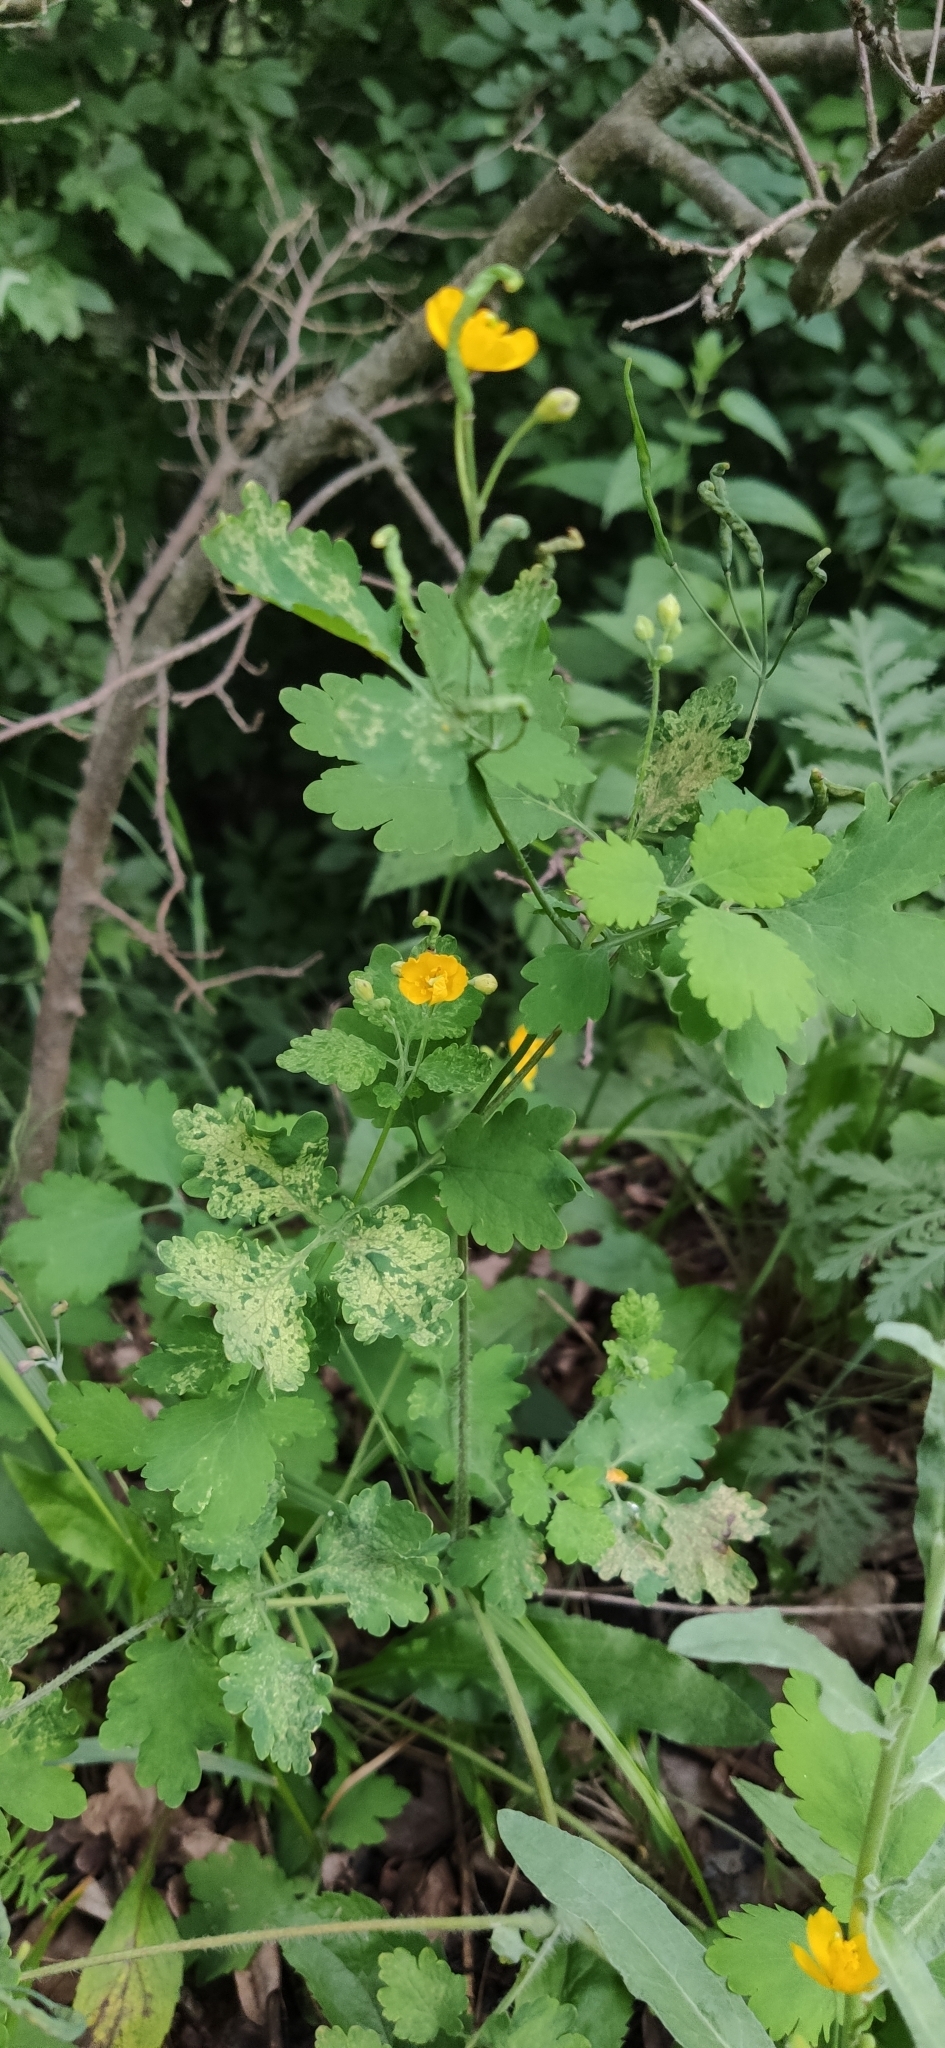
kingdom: Plantae
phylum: Tracheophyta
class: Magnoliopsida
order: Ranunculales
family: Papaveraceae
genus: Chelidonium
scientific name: Chelidonium majus
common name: Greater celandine
